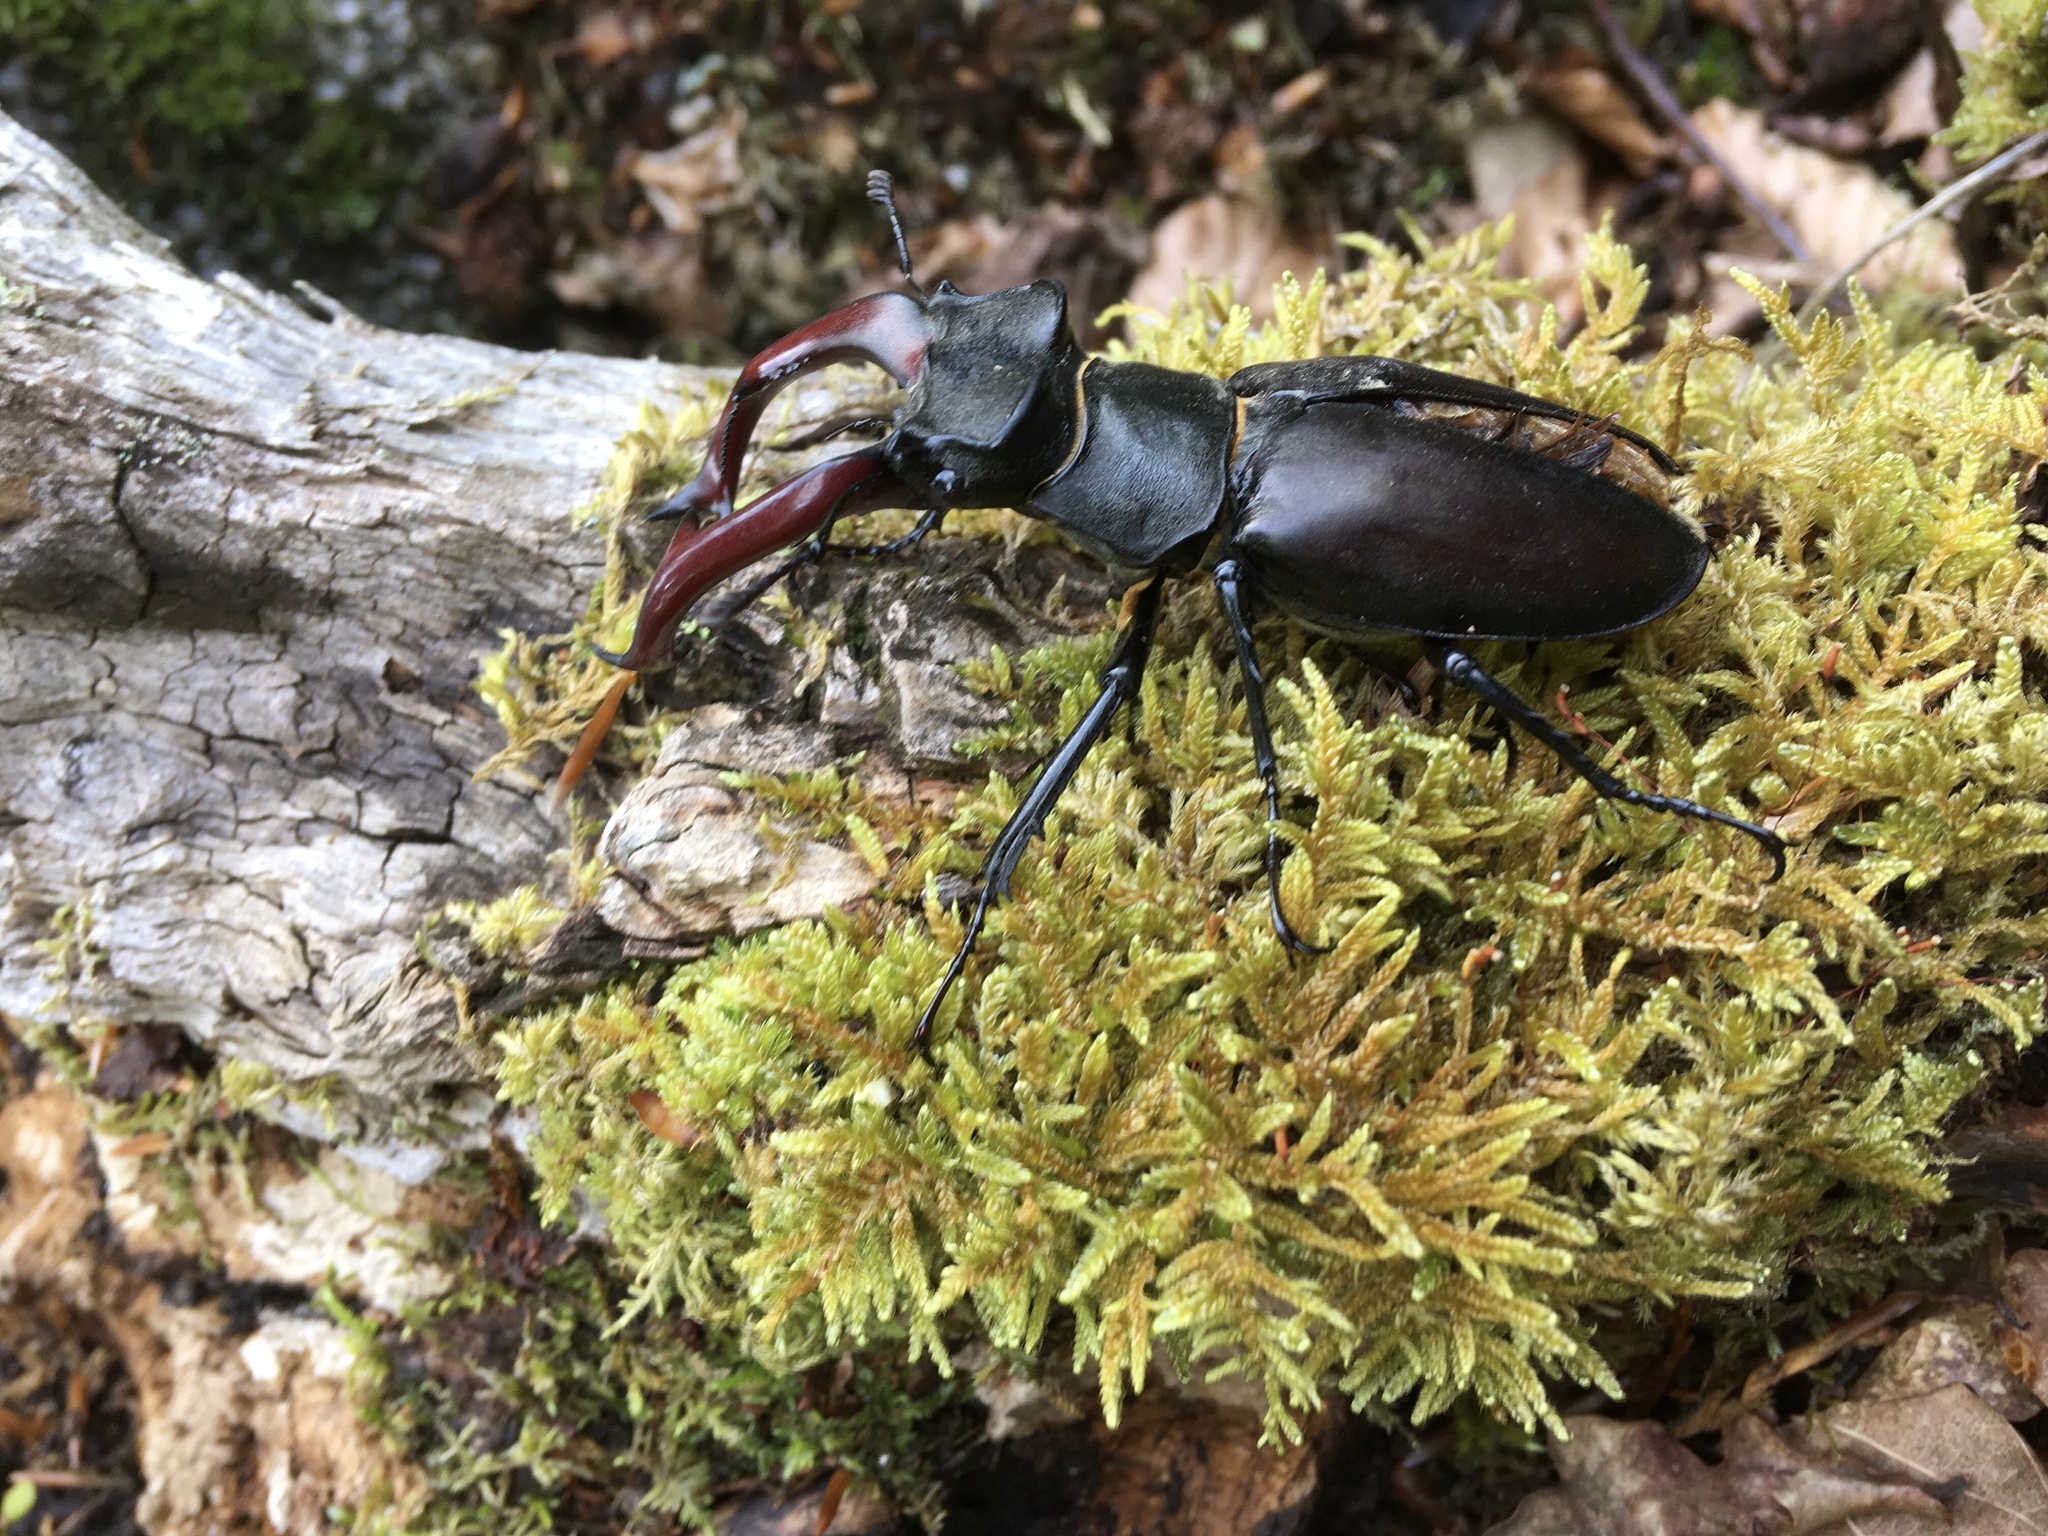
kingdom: Animalia
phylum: Arthropoda
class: Insecta
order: Coleoptera
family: Lucanidae
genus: Lucanus
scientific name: Lucanus cervus
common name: Stag beetle
